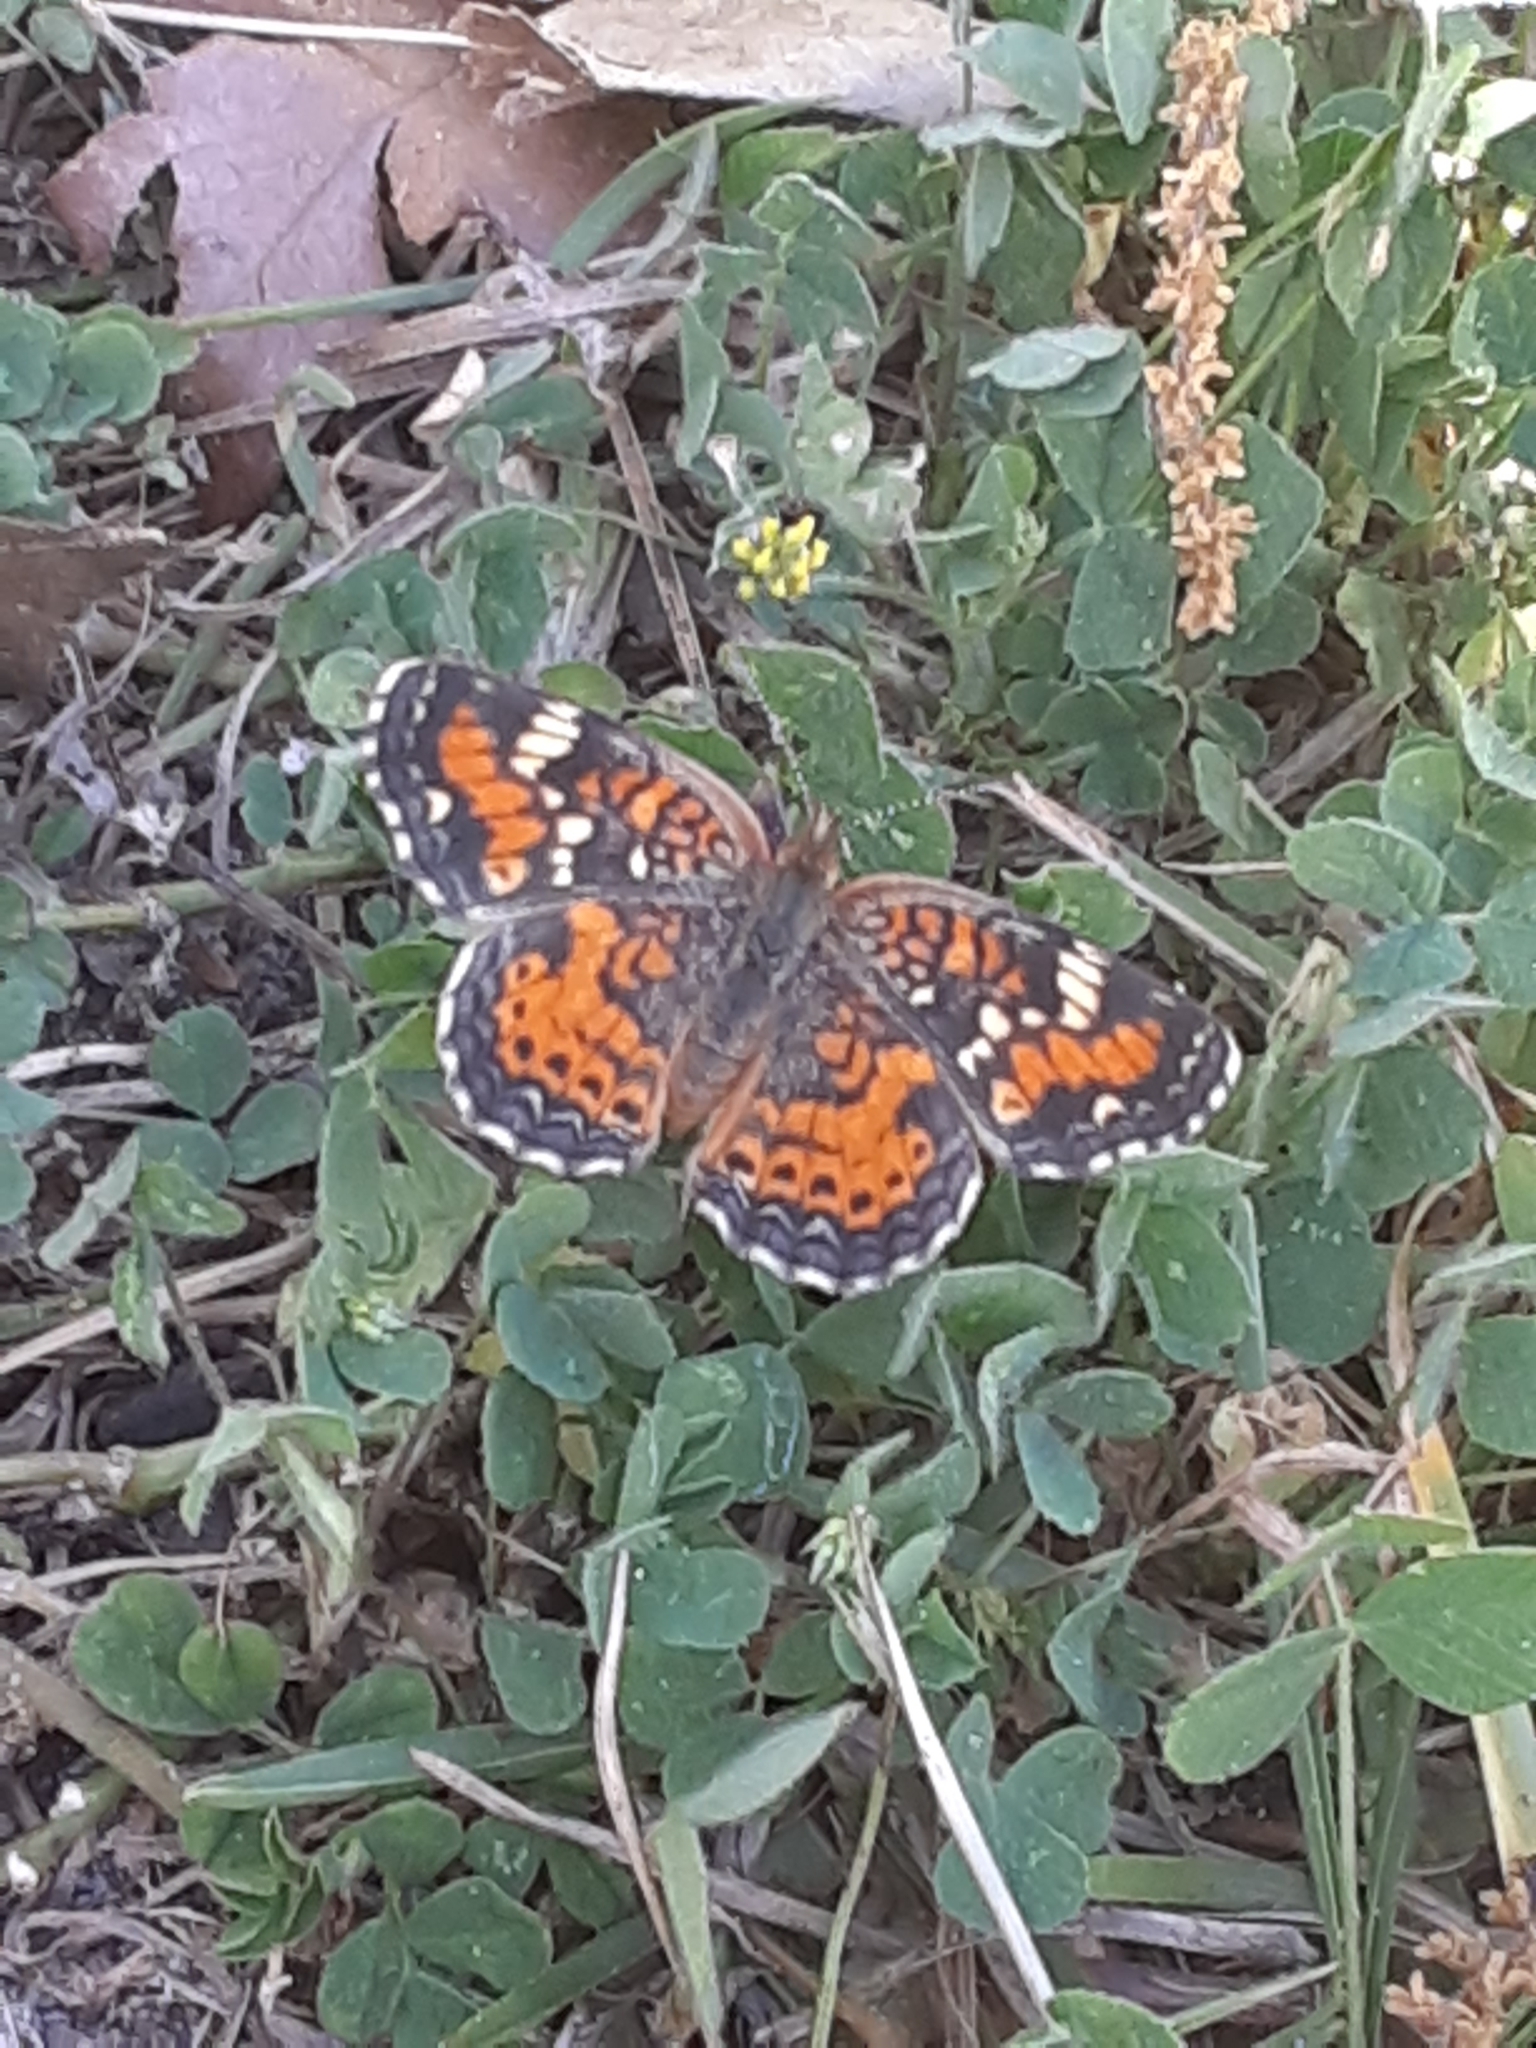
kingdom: Animalia
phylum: Arthropoda
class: Insecta
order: Lepidoptera
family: Nymphalidae
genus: Phyciodes
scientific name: Phyciodes phaon
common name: Phaon crescent
